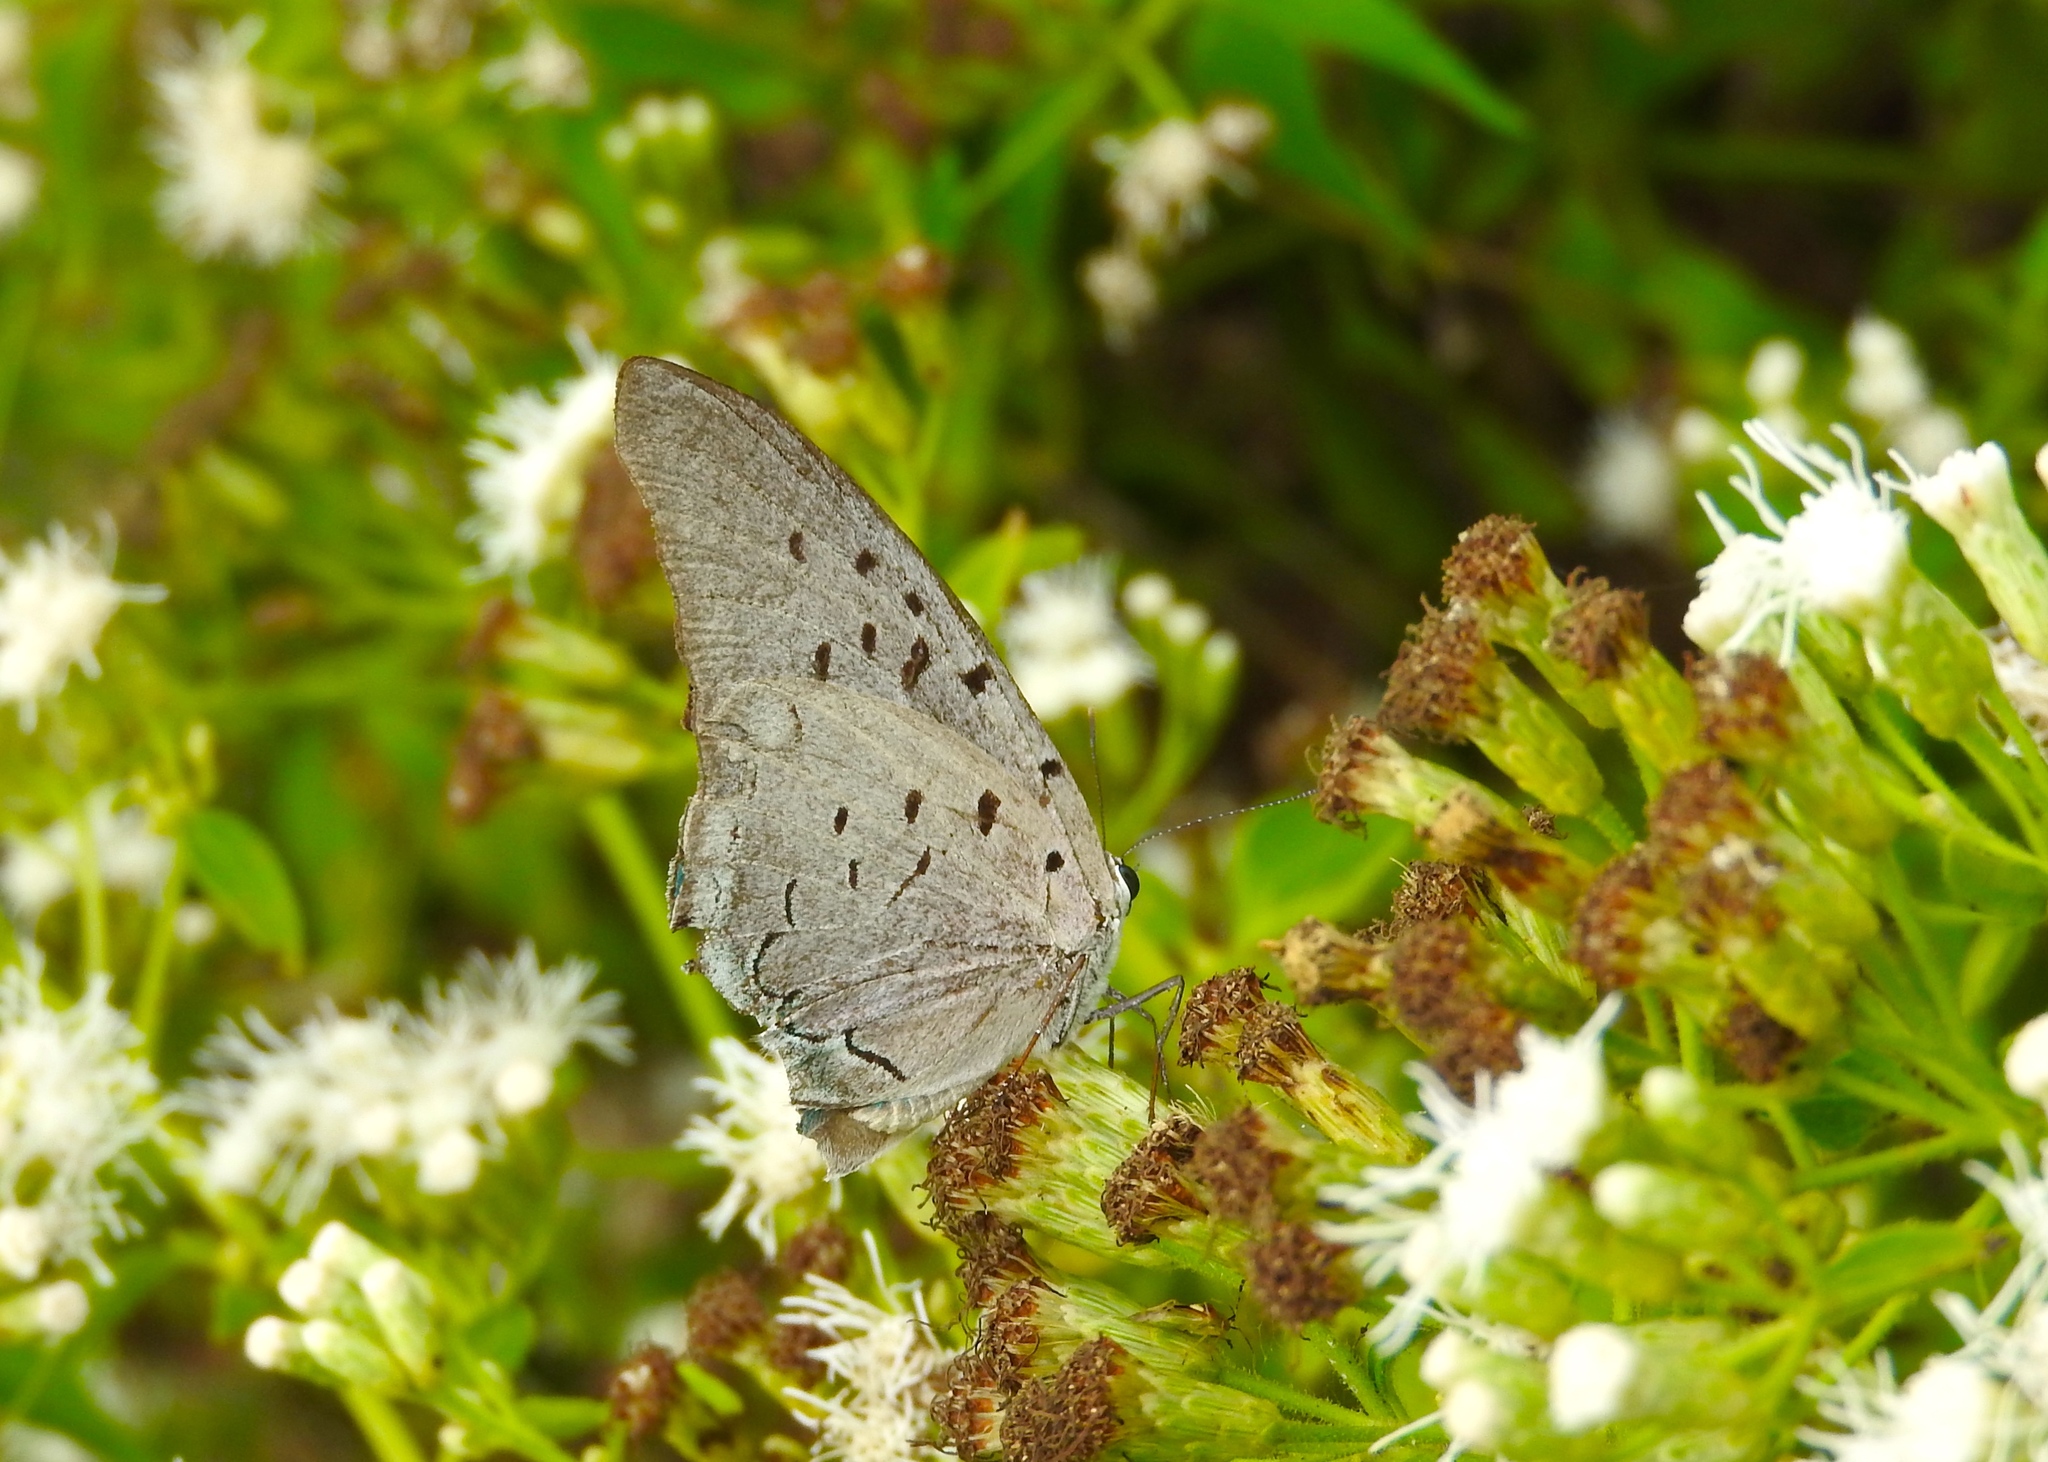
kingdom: Animalia
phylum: Arthropoda
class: Insecta
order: Lepidoptera
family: Lycaenidae
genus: Pseudolycaena
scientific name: Pseudolycaena damo
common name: Sky-blue hairstreak
